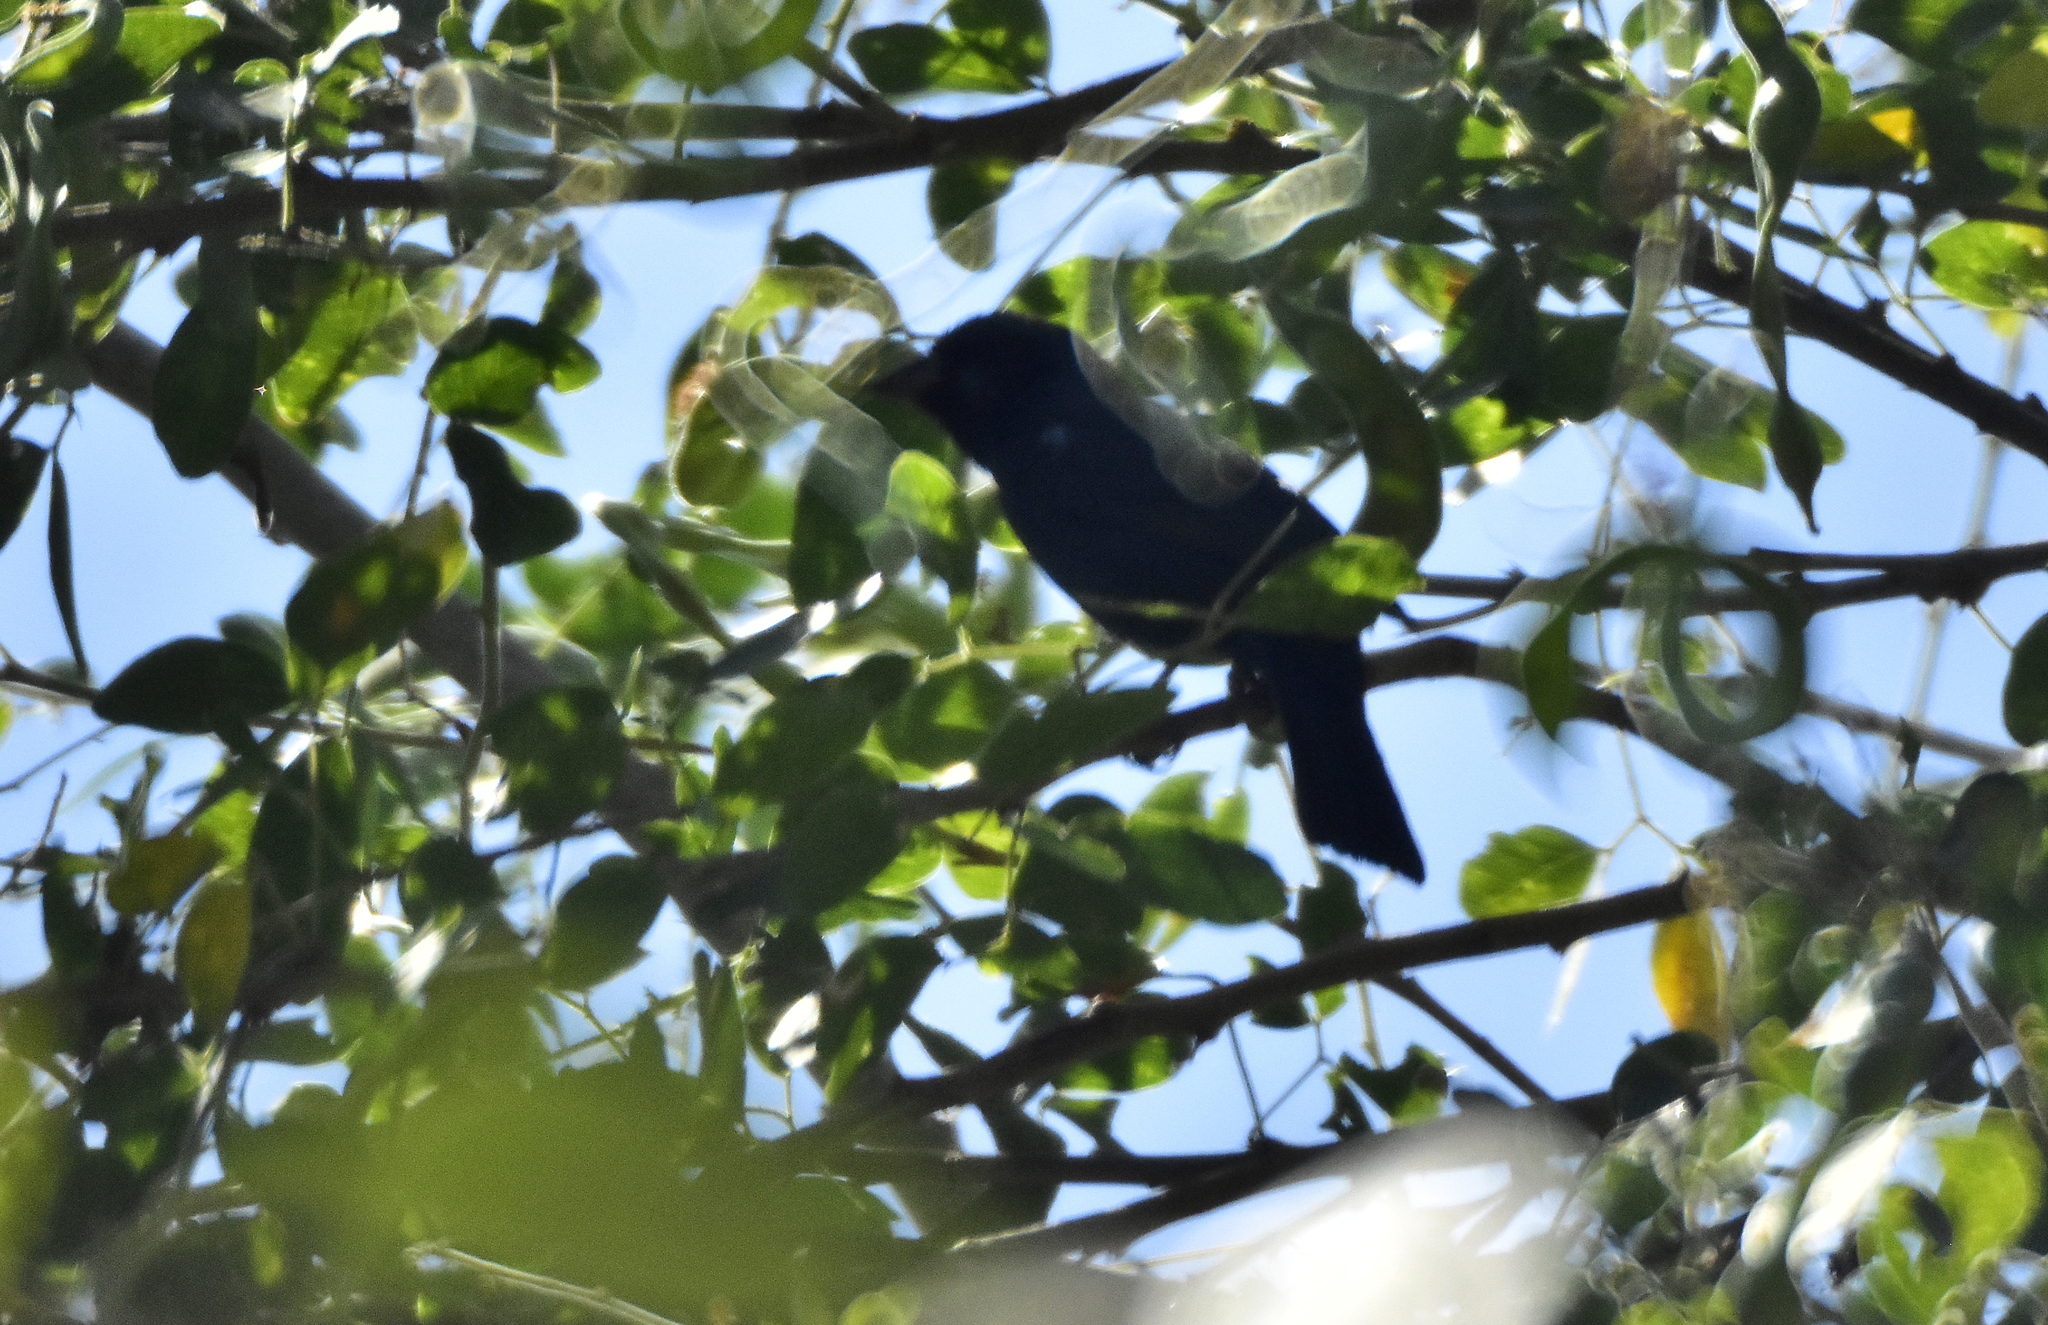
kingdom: Animalia
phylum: Chordata
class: Aves
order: Passeriformes
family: Cardinalidae
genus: Cyanocompsa
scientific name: Cyanocompsa parellina
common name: Blue bunting
